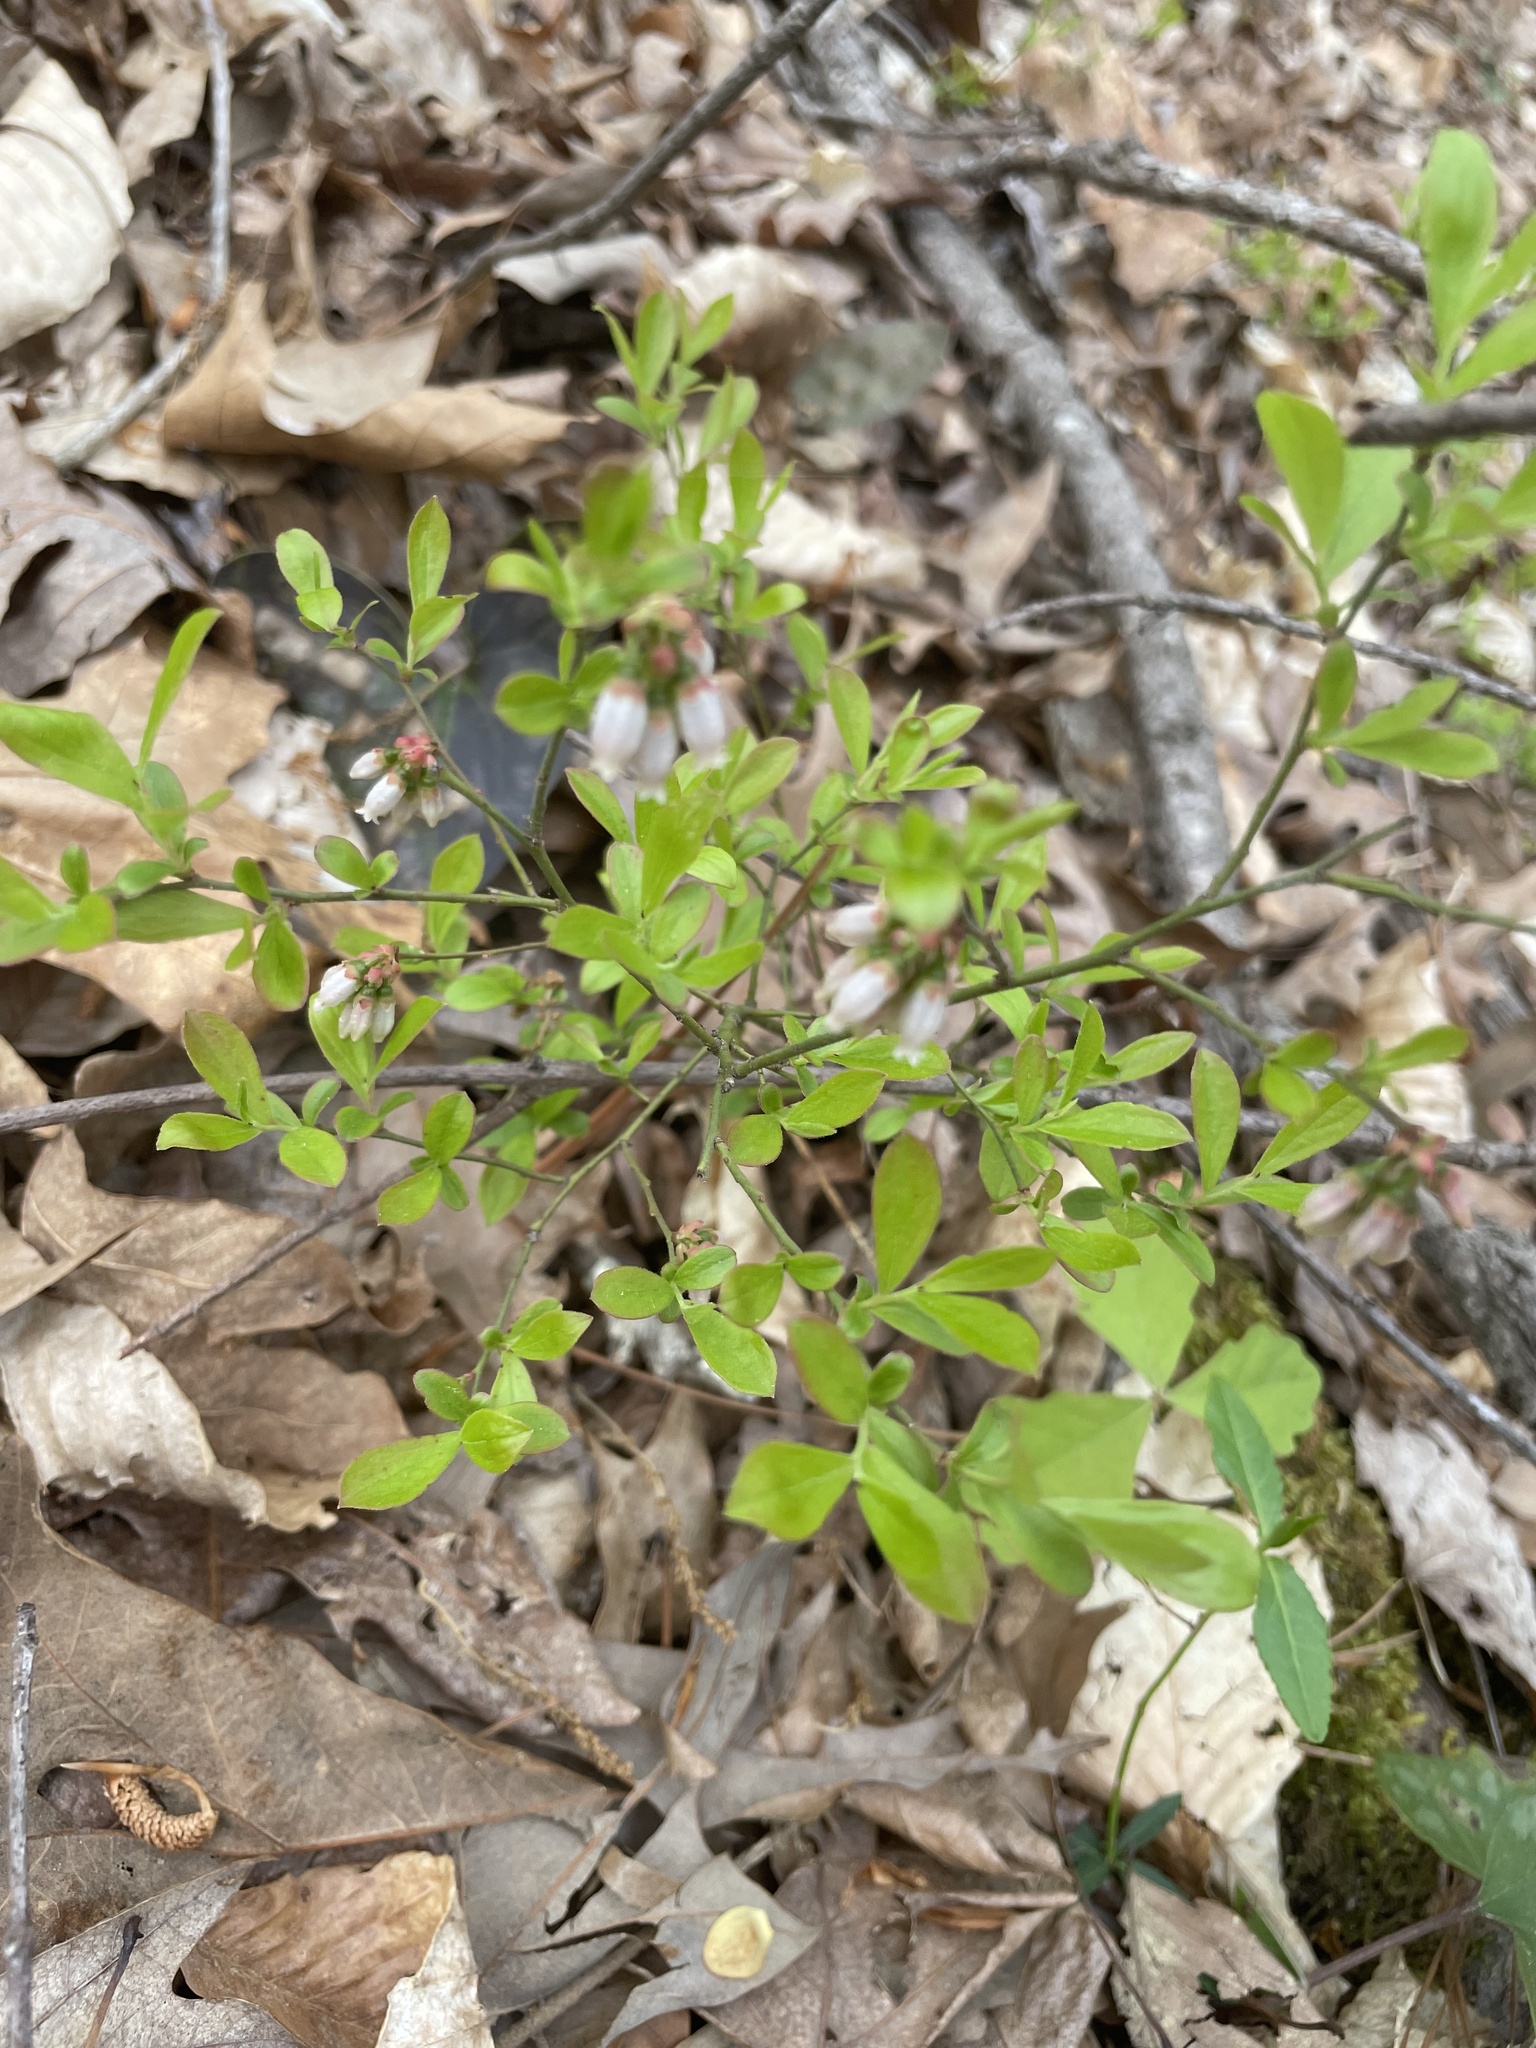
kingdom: Plantae
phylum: Tracheophyta
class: Magnoliopsida
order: Ericales
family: Ericaceae
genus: Vaccinium
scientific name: Vaccinium pallidum
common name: Blue ridge blueberry
